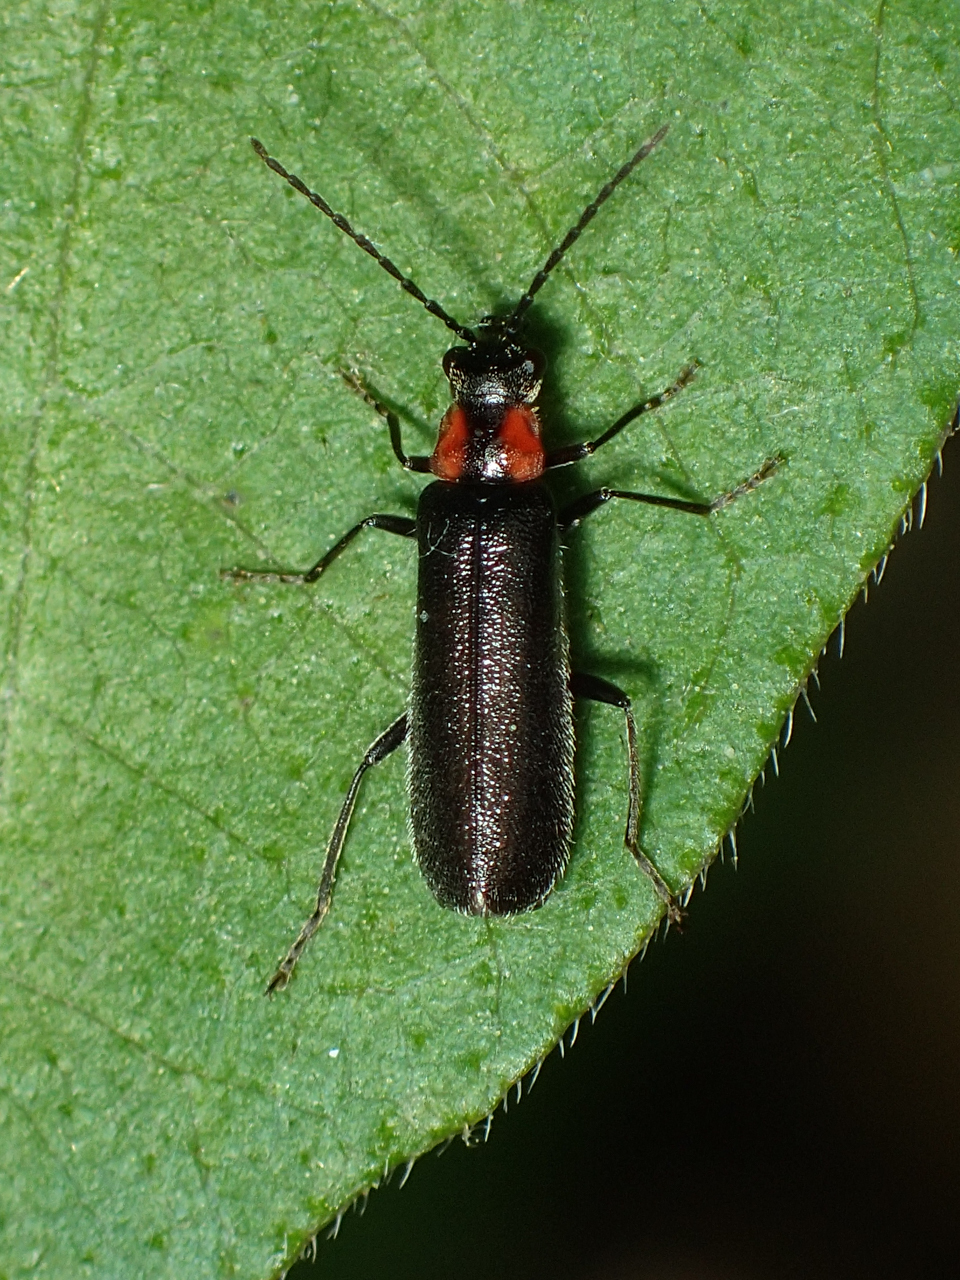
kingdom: Animalia
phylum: Arthropoda
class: Insecta
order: Coleoptera
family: Cantharidae
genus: Rhagonycha
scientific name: Rhagonycha lineola
